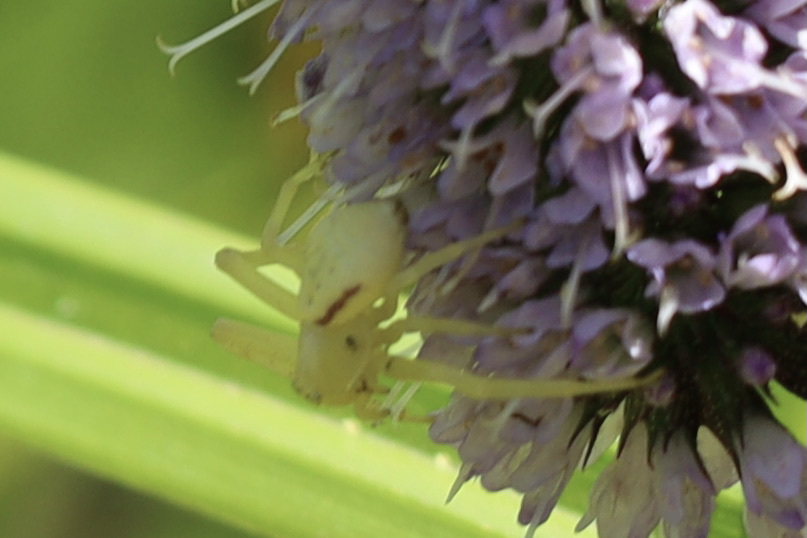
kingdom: Animalia
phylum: Arthropoda
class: Arachnida
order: Araneae
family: Thomisidae
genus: Misumena
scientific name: Misumena vatia
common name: Goldenrod crab spider
